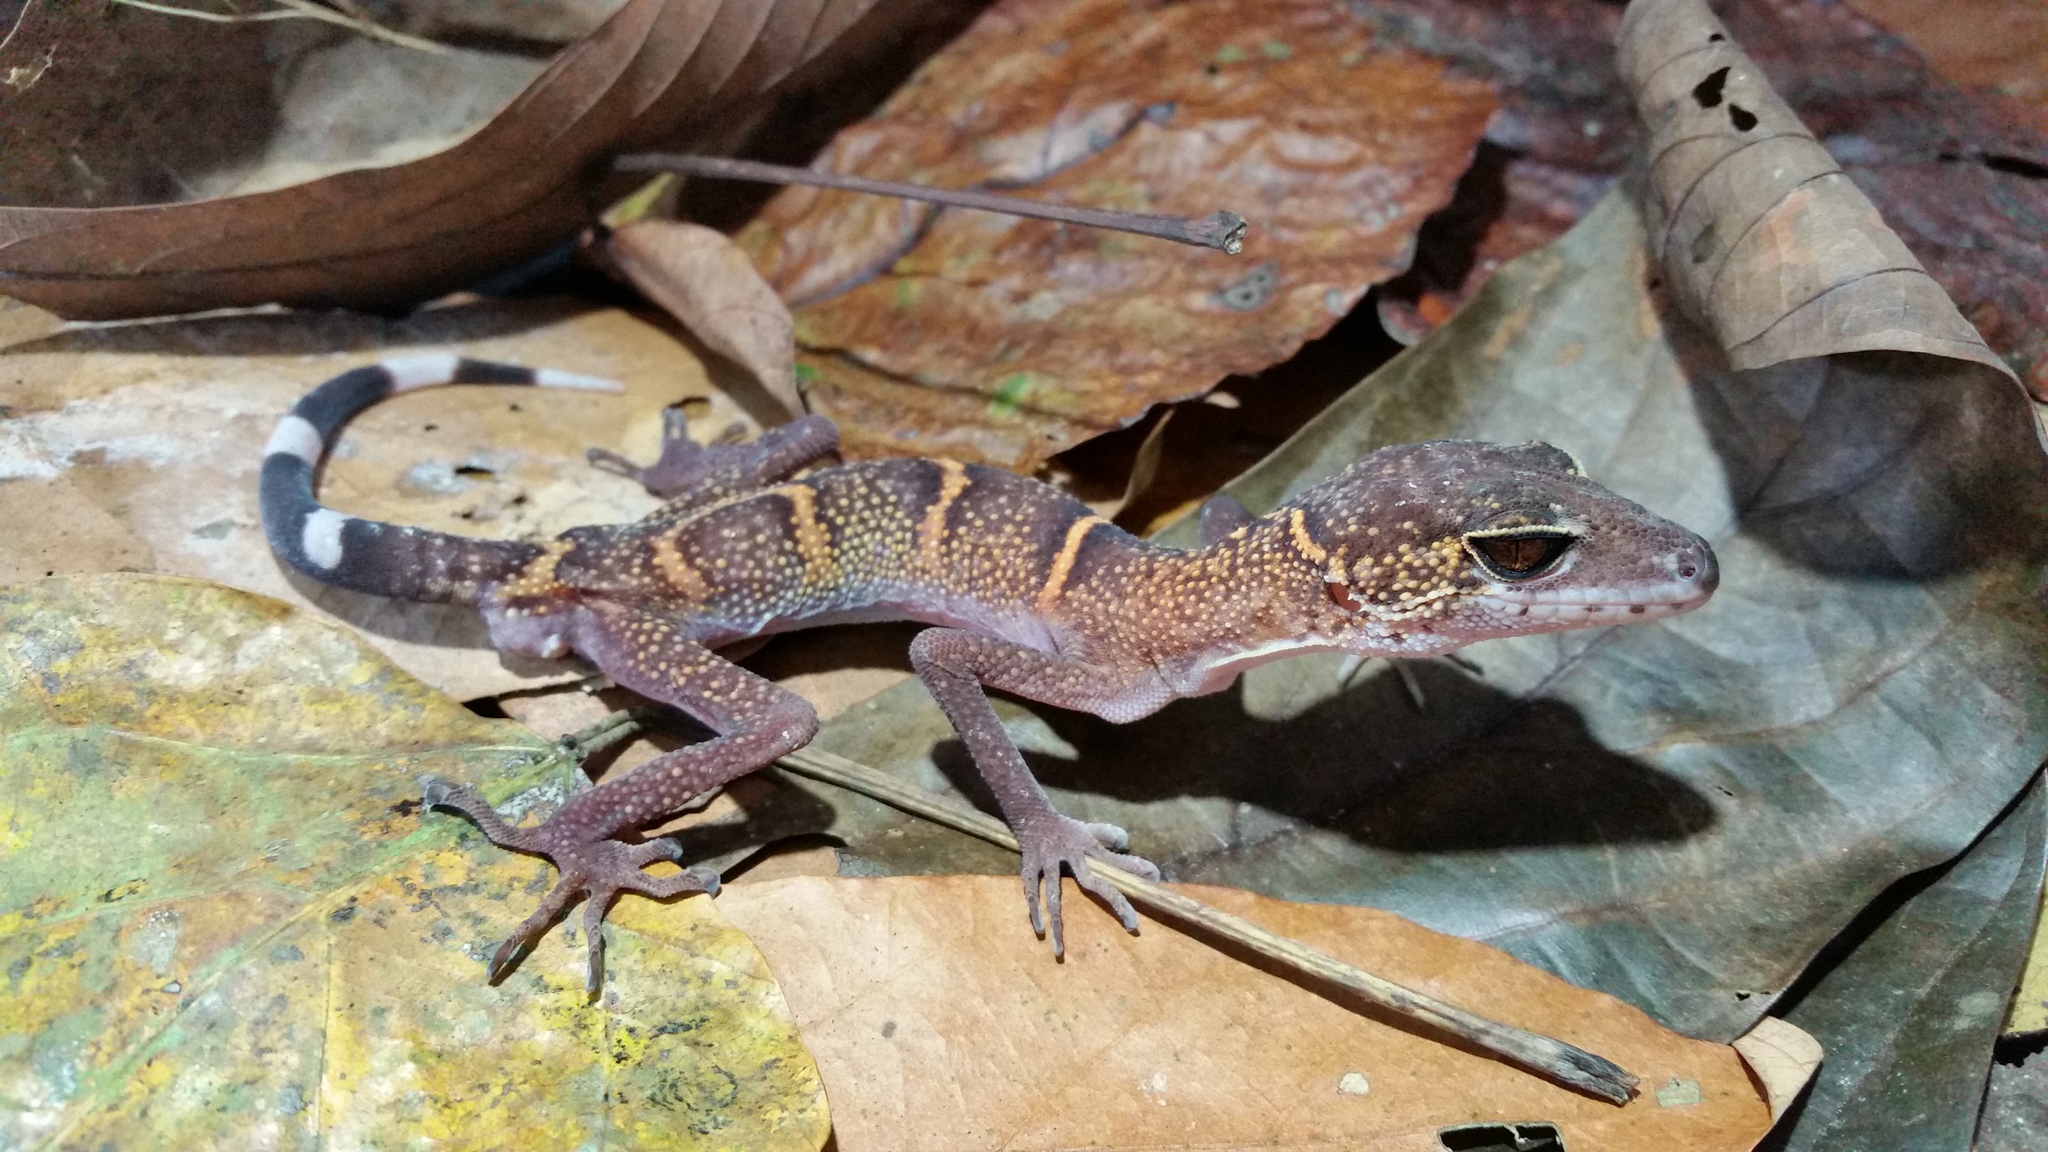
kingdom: Animalia
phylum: Chordata
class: Squamata
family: Eublepharidae
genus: Goniurosaurus
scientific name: Goniurosaurus catbaensis
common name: Cat ba tiger gecko
